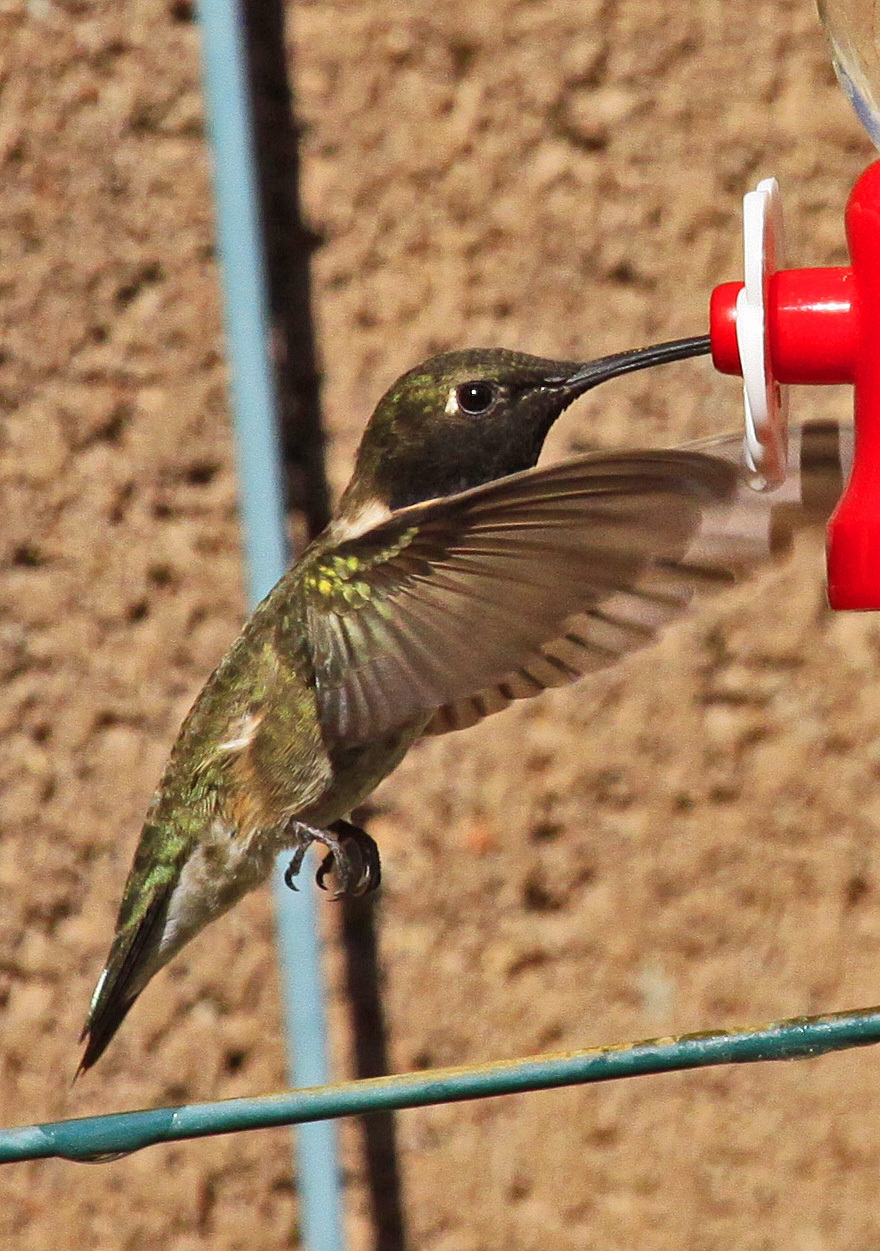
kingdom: Animalia
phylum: Chordata
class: Aves
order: Apodiformes
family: Trochilidae
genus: Archilochus
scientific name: Archilochus alexandri
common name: Black-chinned hummingbird
